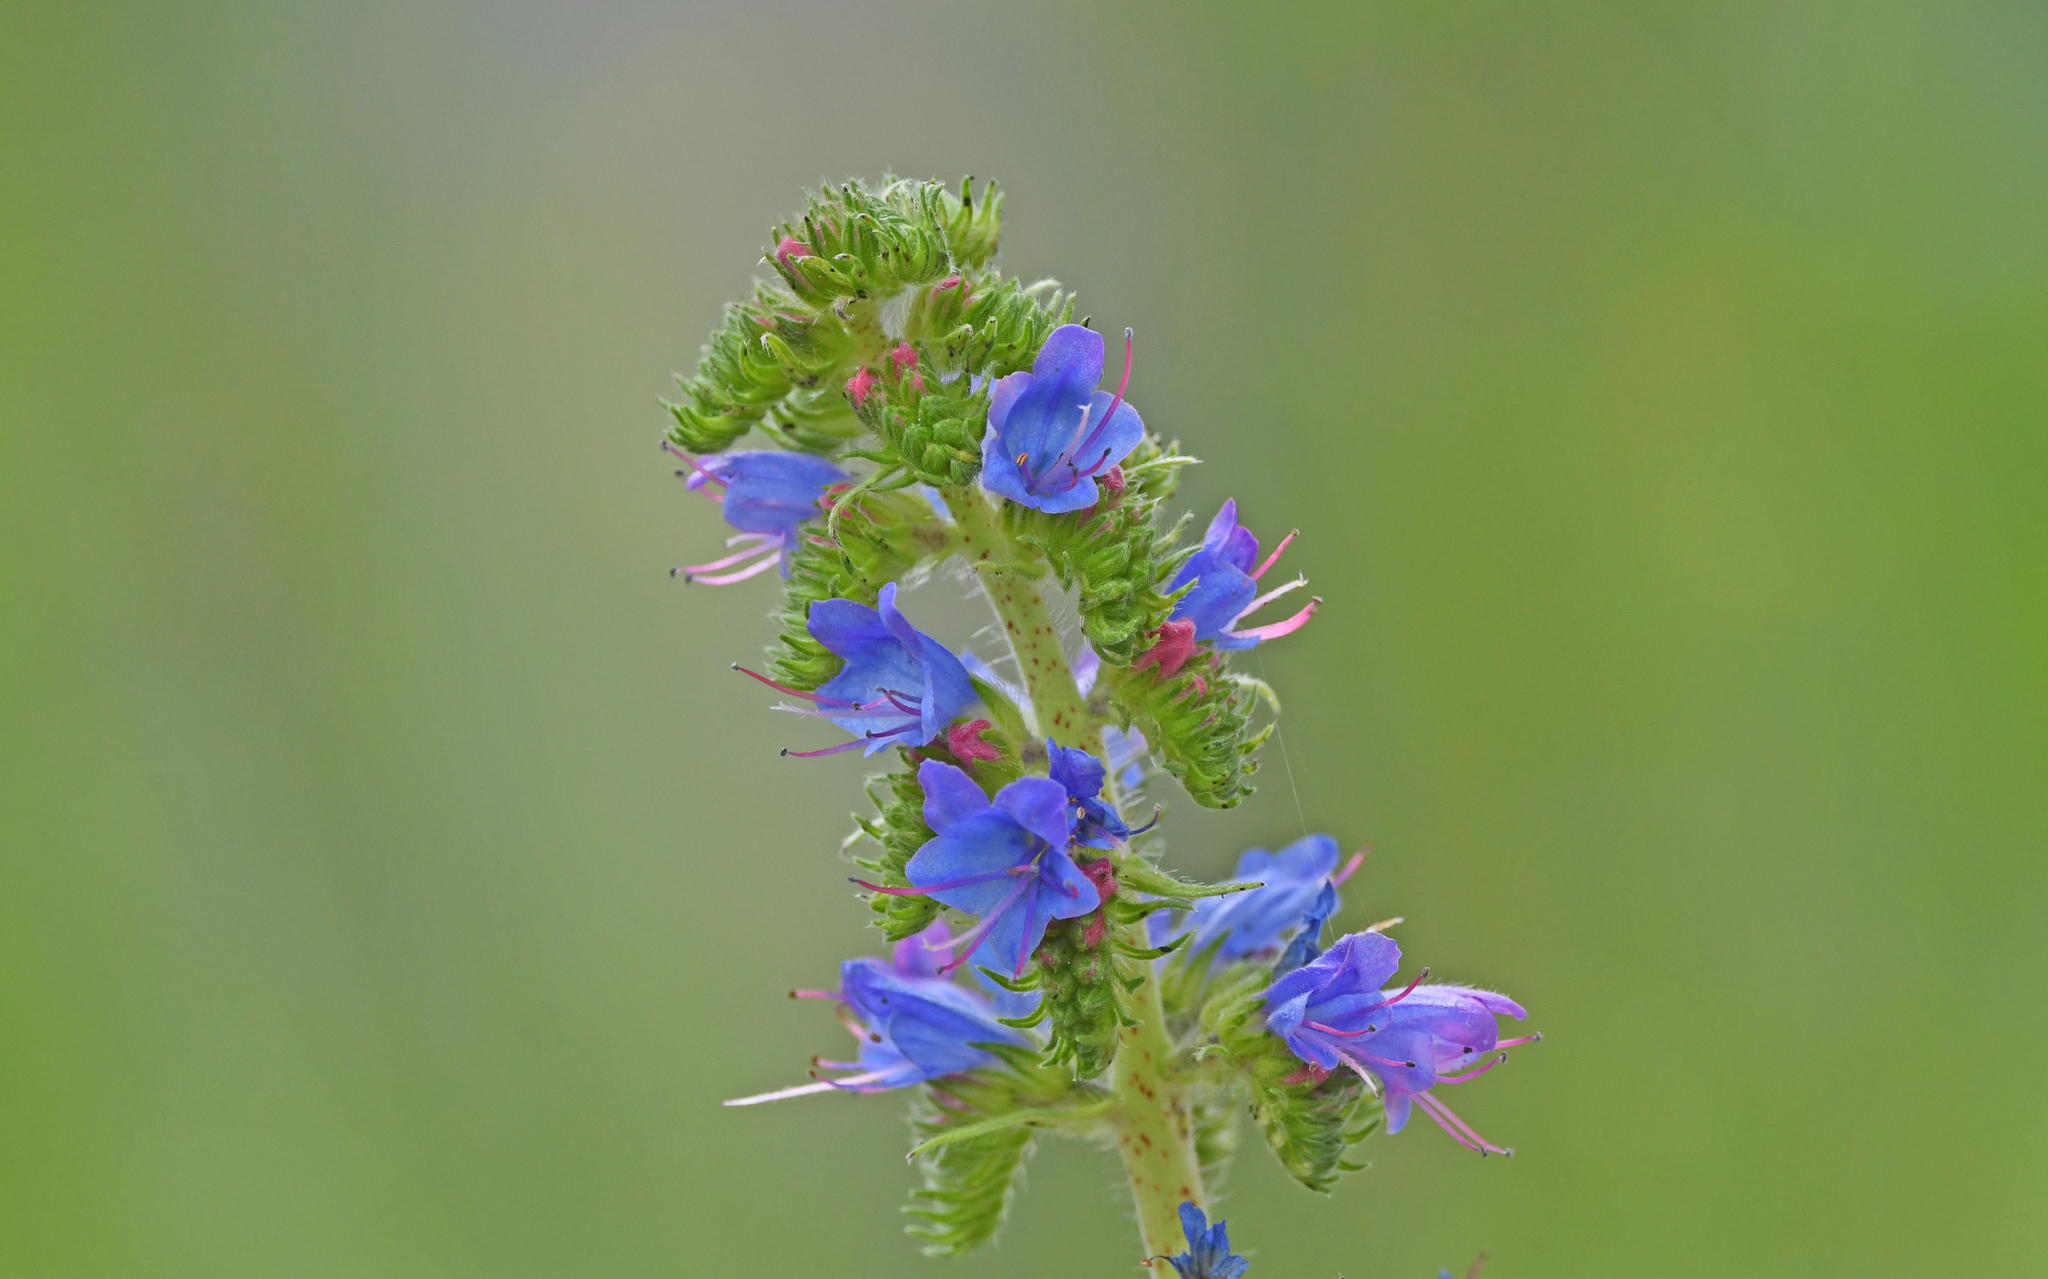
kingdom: Plantae
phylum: Tracheophyta
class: Magnoliopsida
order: Boraginales
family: Boraginaceae
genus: Echium
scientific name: Echium vulgare
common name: Common viper's bugloss
